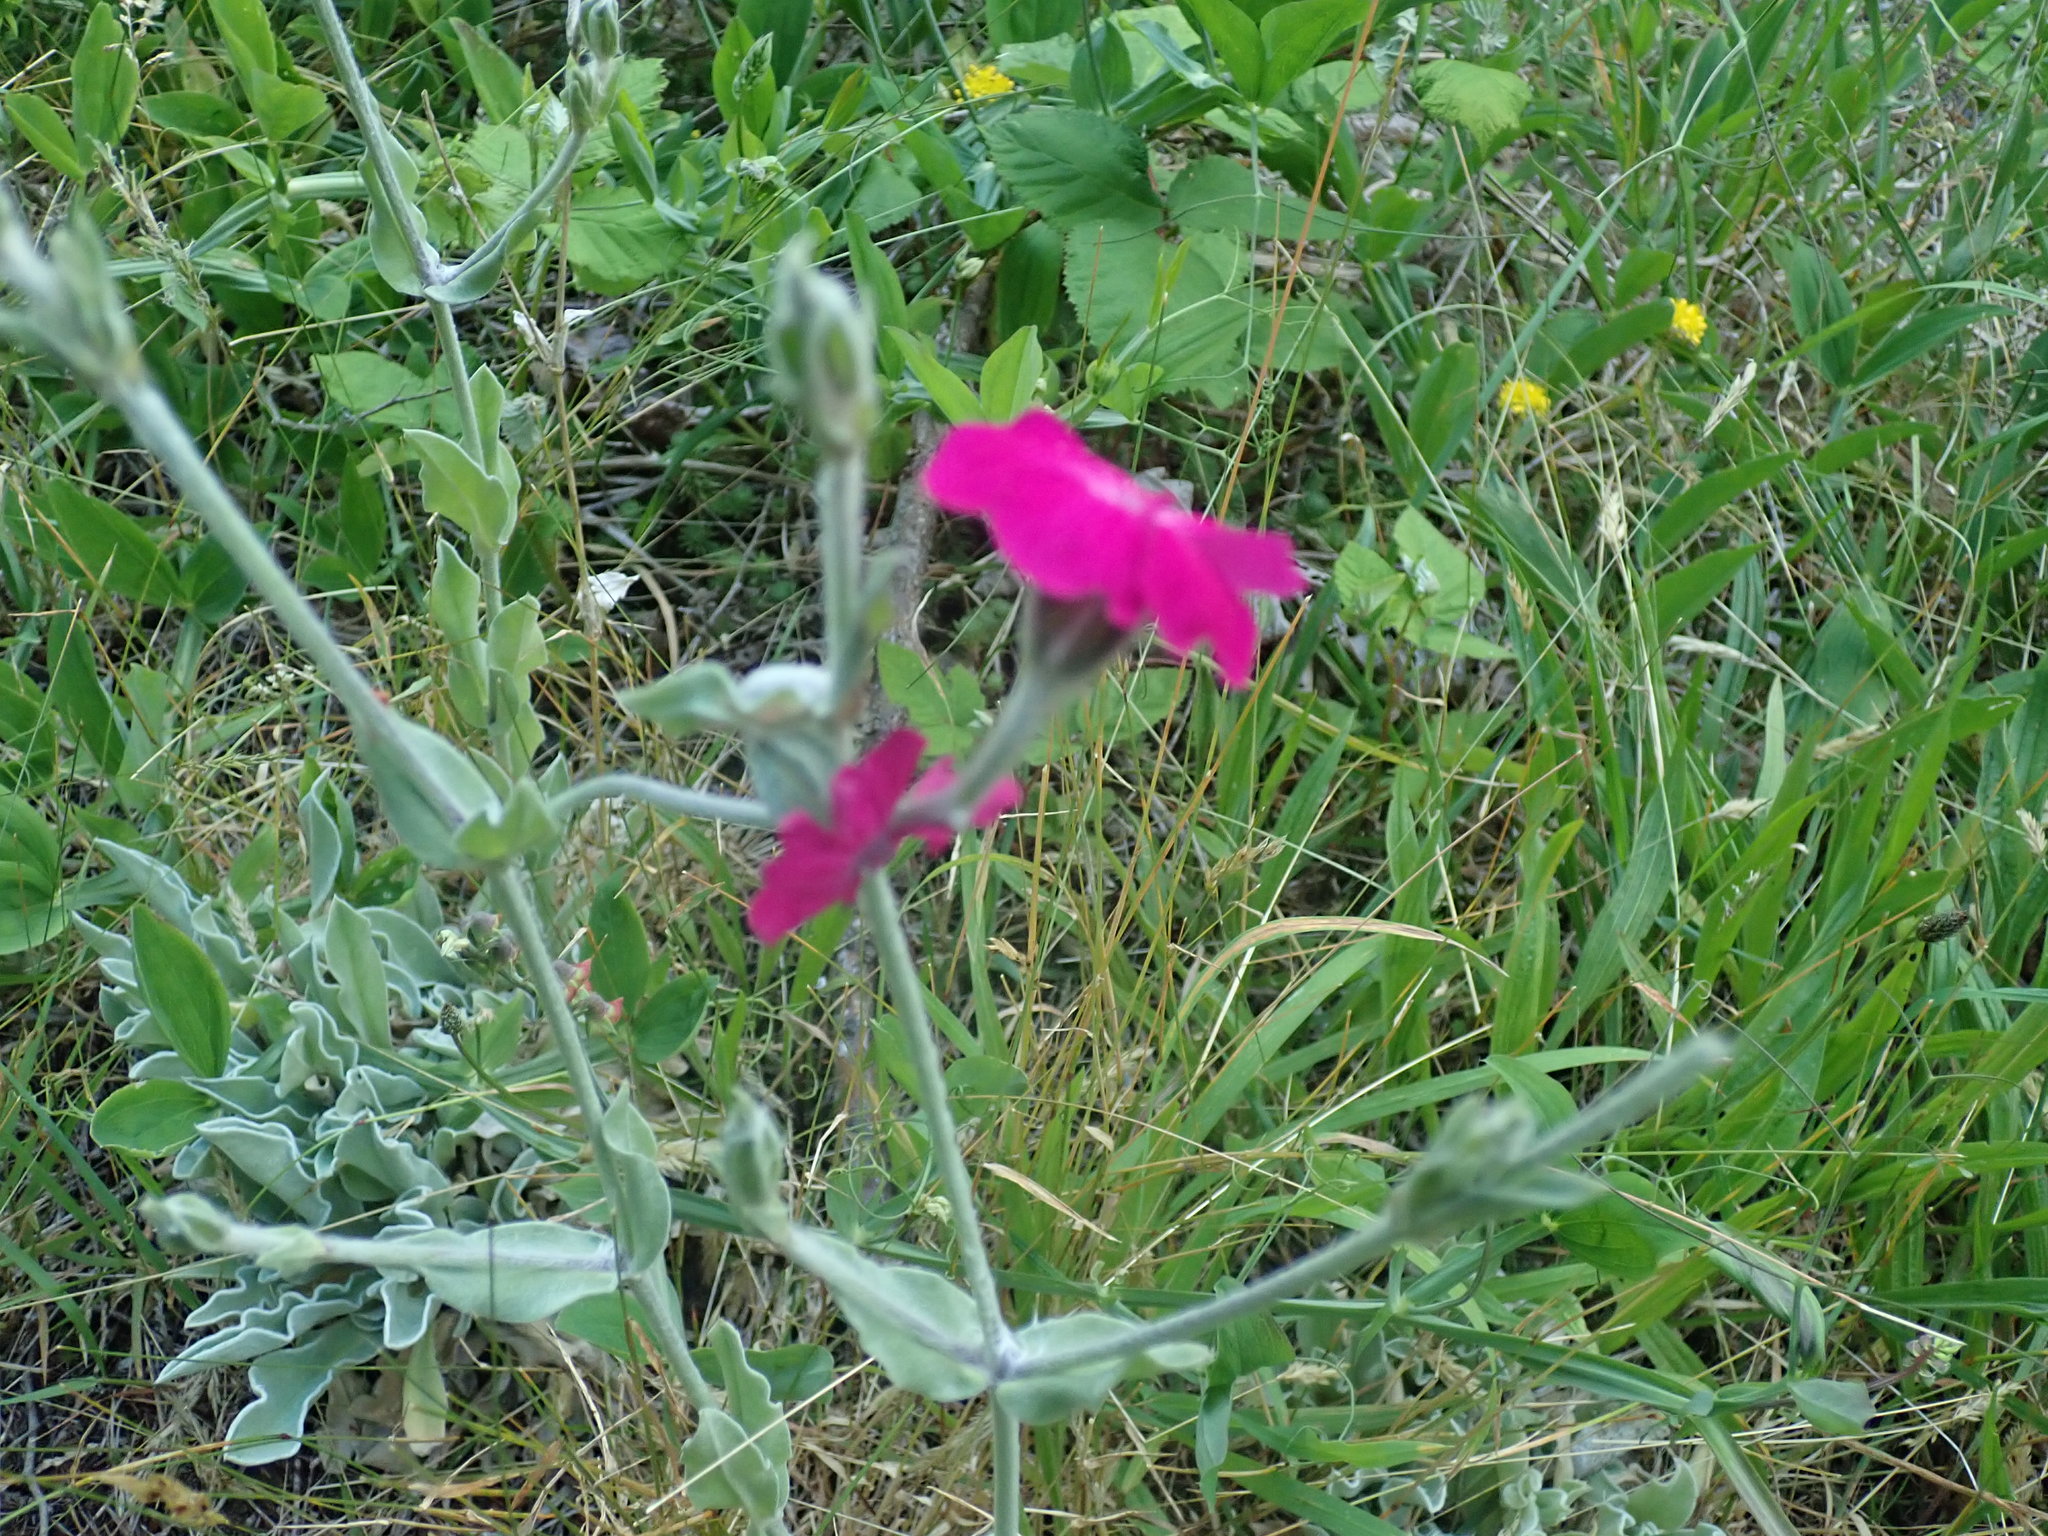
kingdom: Plantae
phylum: Tracheophyta
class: Magnoliopsida
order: Caryophyllales
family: Caryophyllaceae
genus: Silene
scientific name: Silene coronaria
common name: Rose campion
